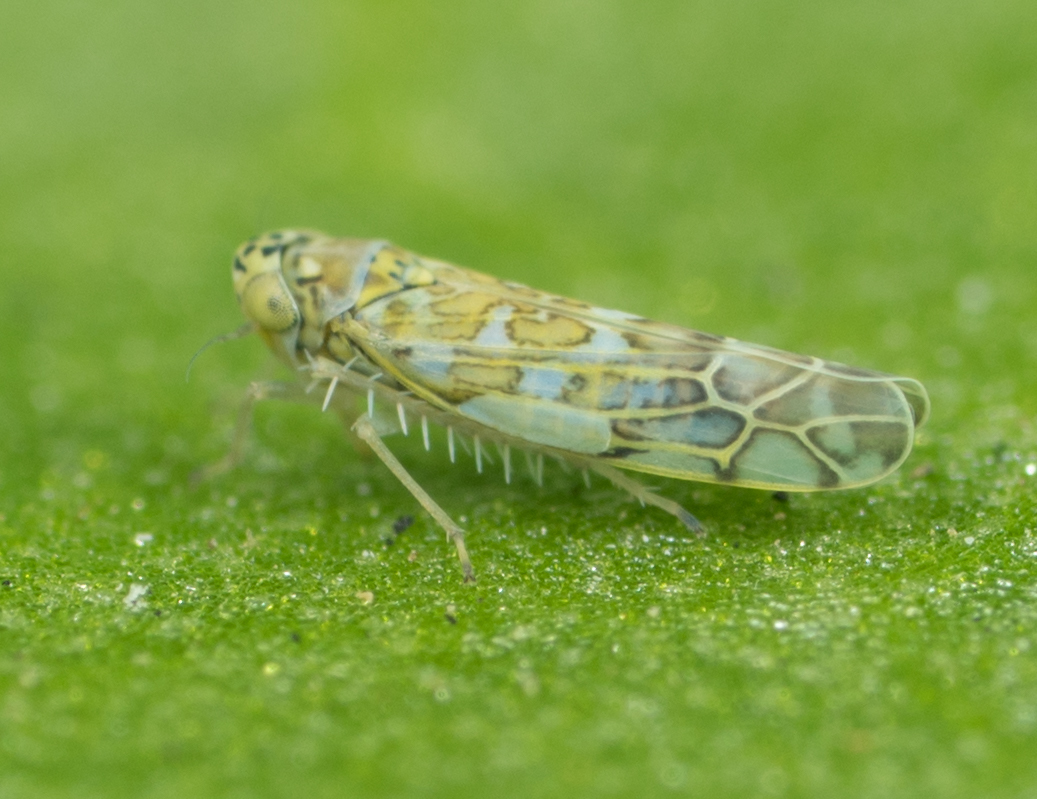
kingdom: Animalia
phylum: Arthropoda
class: Insecta
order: Hemiptera
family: Cicadellidae
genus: Eupteryx
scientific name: Eupteryx decemnotata
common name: Ligurian leafhopper
